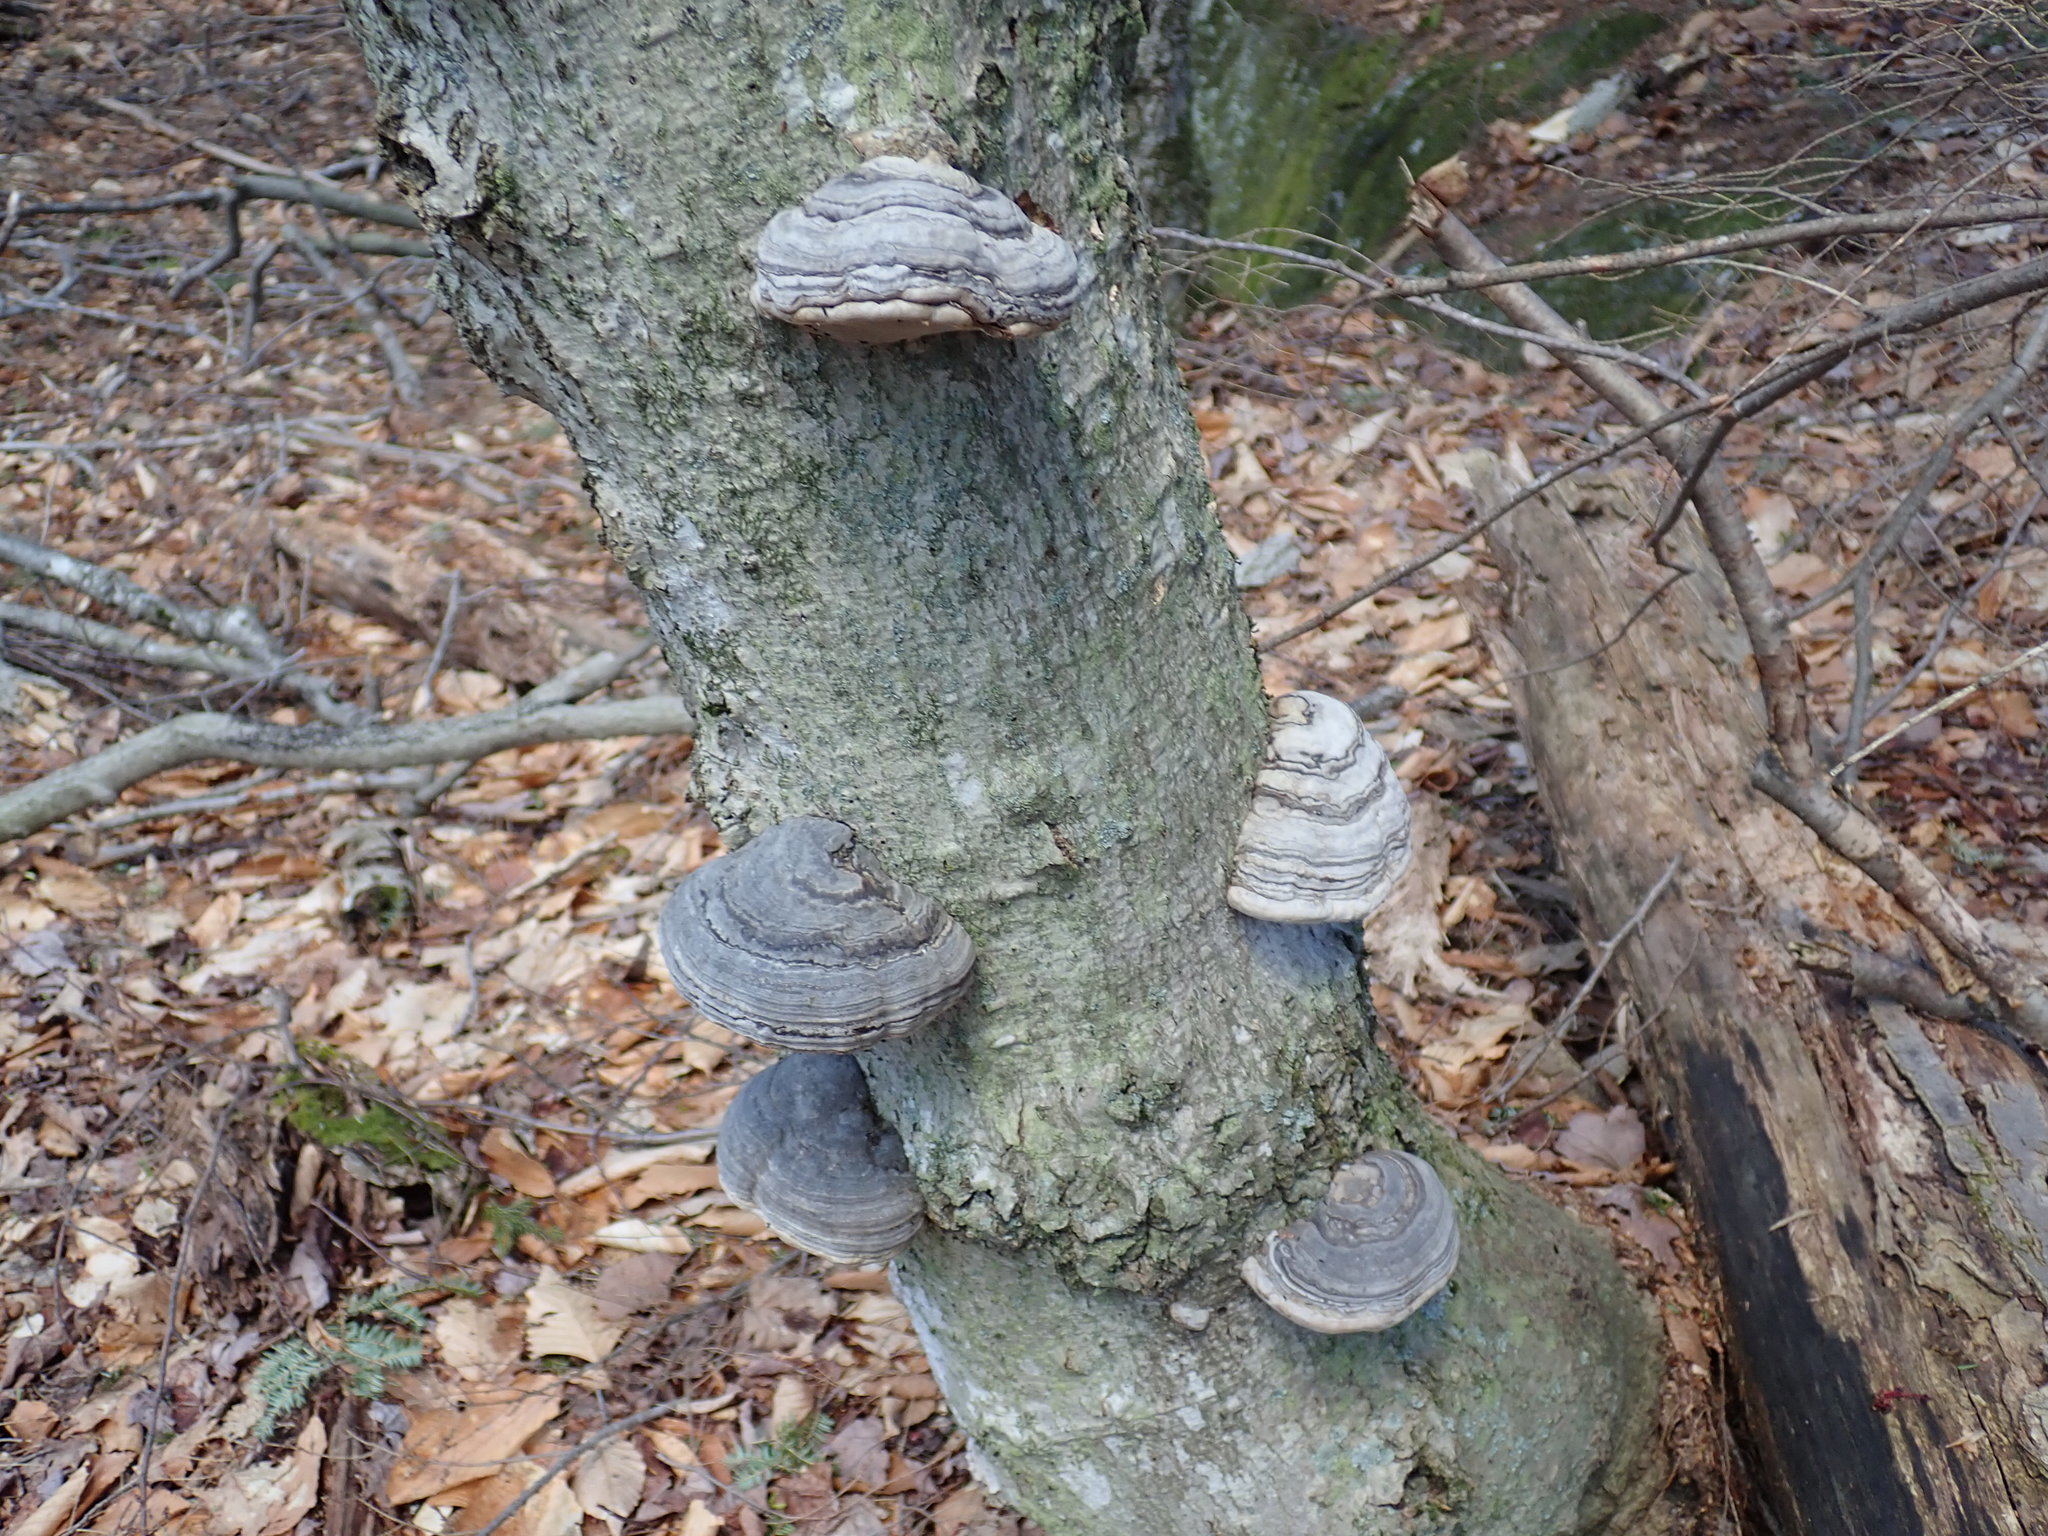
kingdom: Fungi
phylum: Basidiomycota
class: Agaricomycetes
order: Polyporales
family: Polyporaceae
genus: Fomes
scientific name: Fomes fomentarius
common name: Hoof fungus
